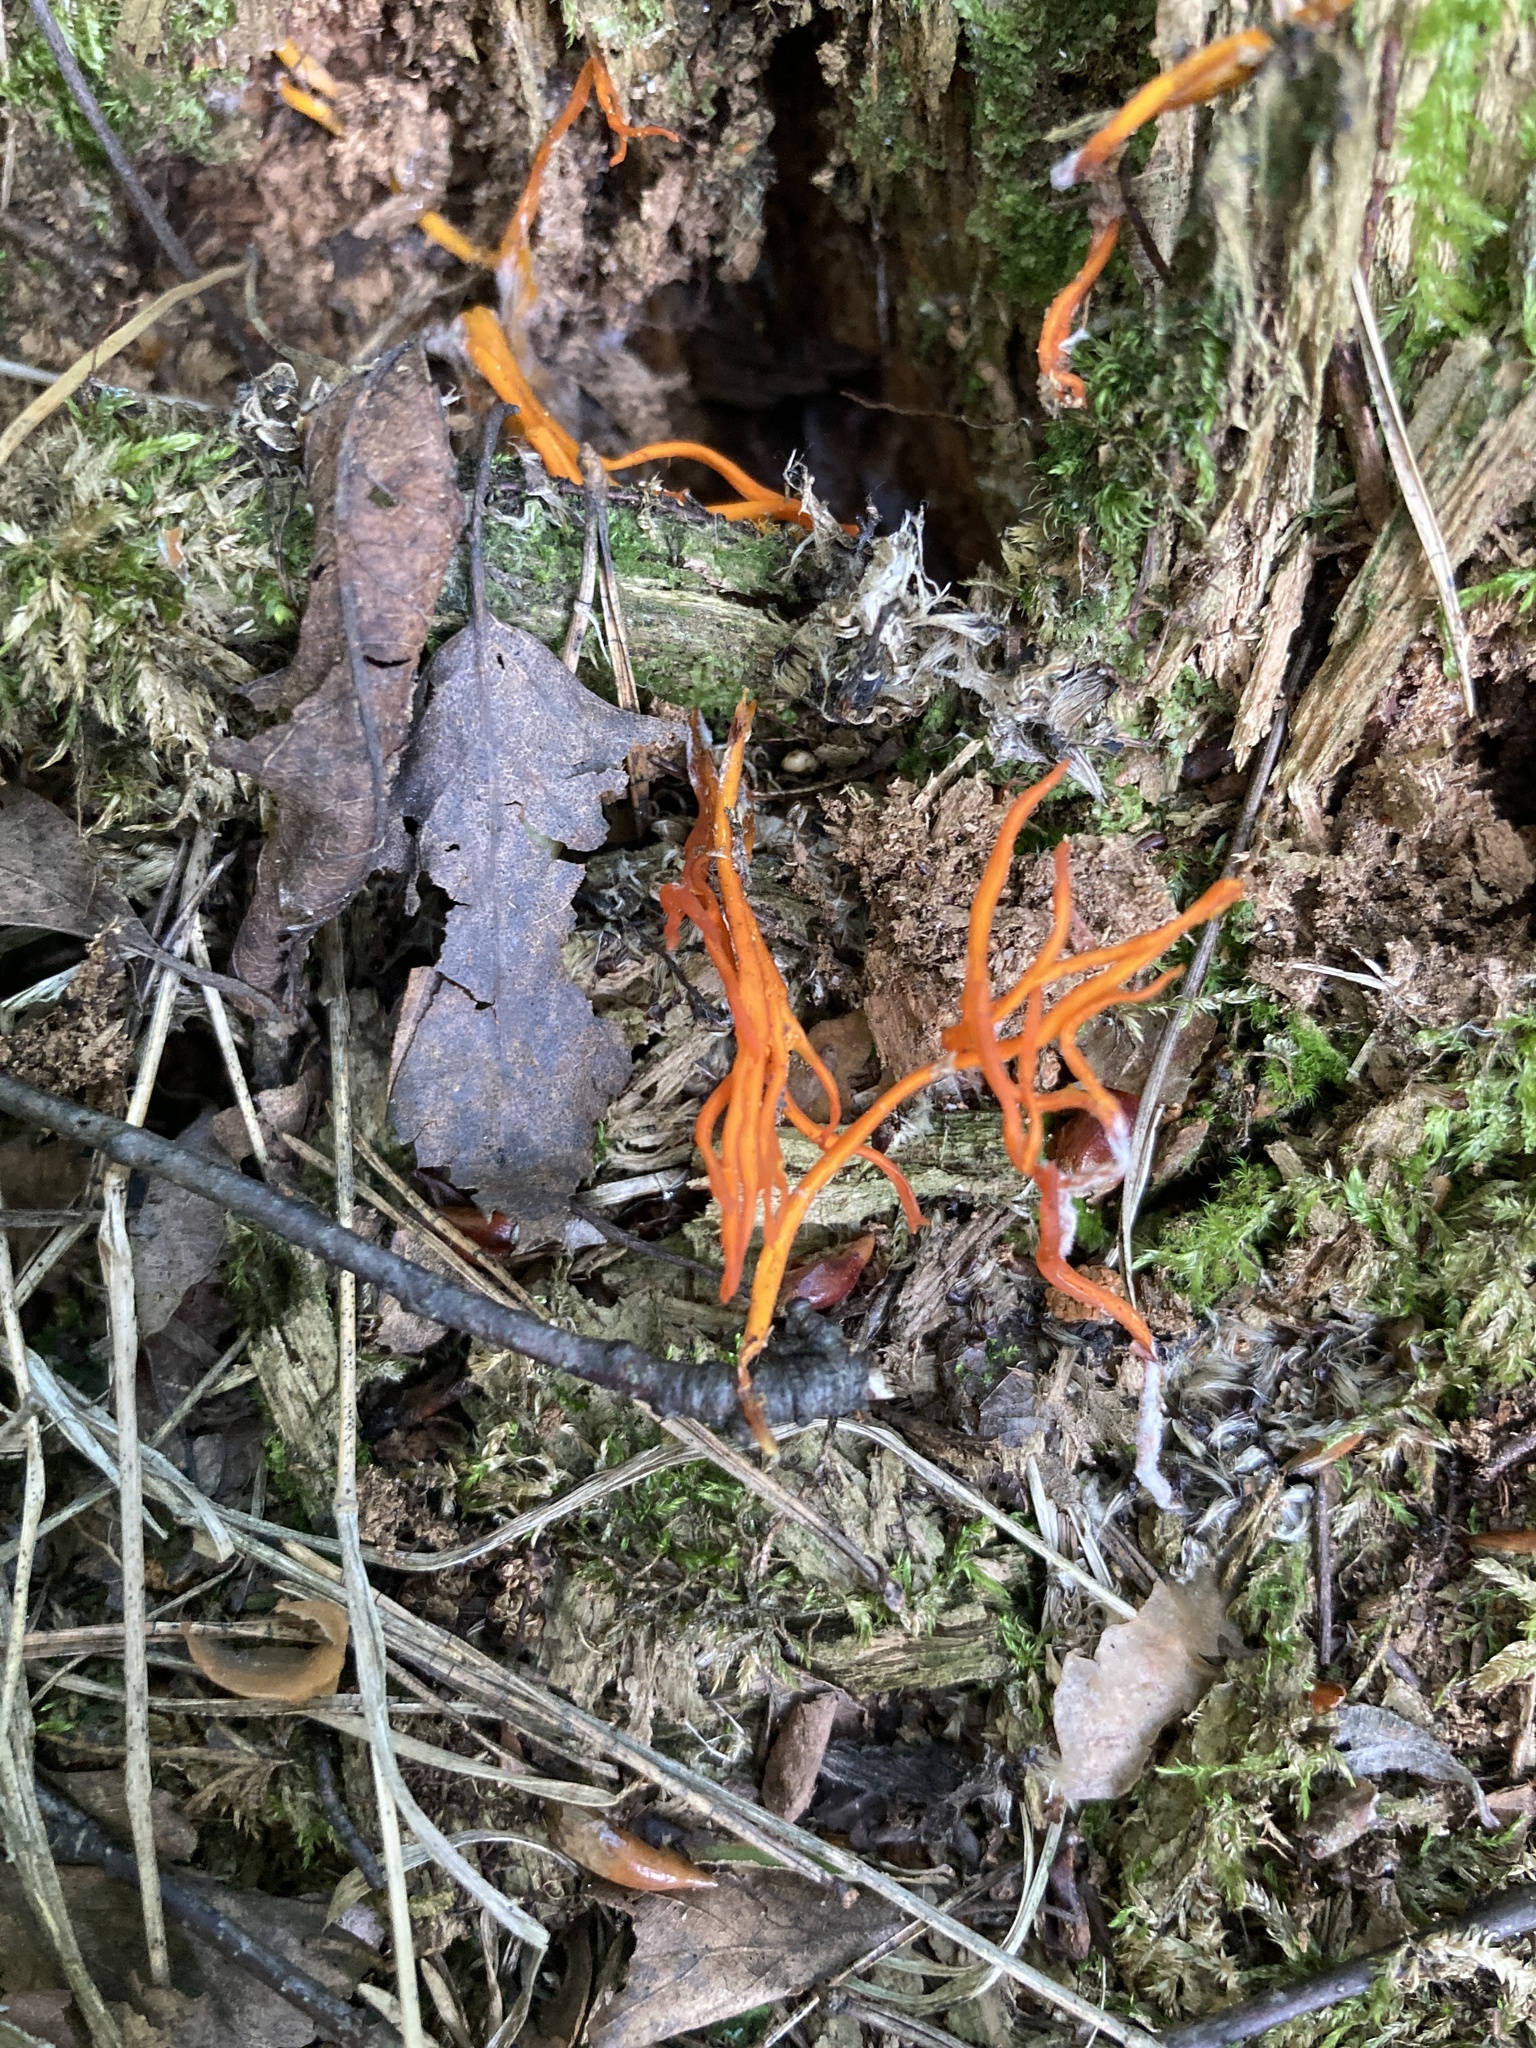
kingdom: Fungi
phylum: Basidiomycota
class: Dacrymycetes
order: Dacrymycetales
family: Dacrymycetaceae
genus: Calocera
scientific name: Calocera viscosa
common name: Yellow stagshorn
